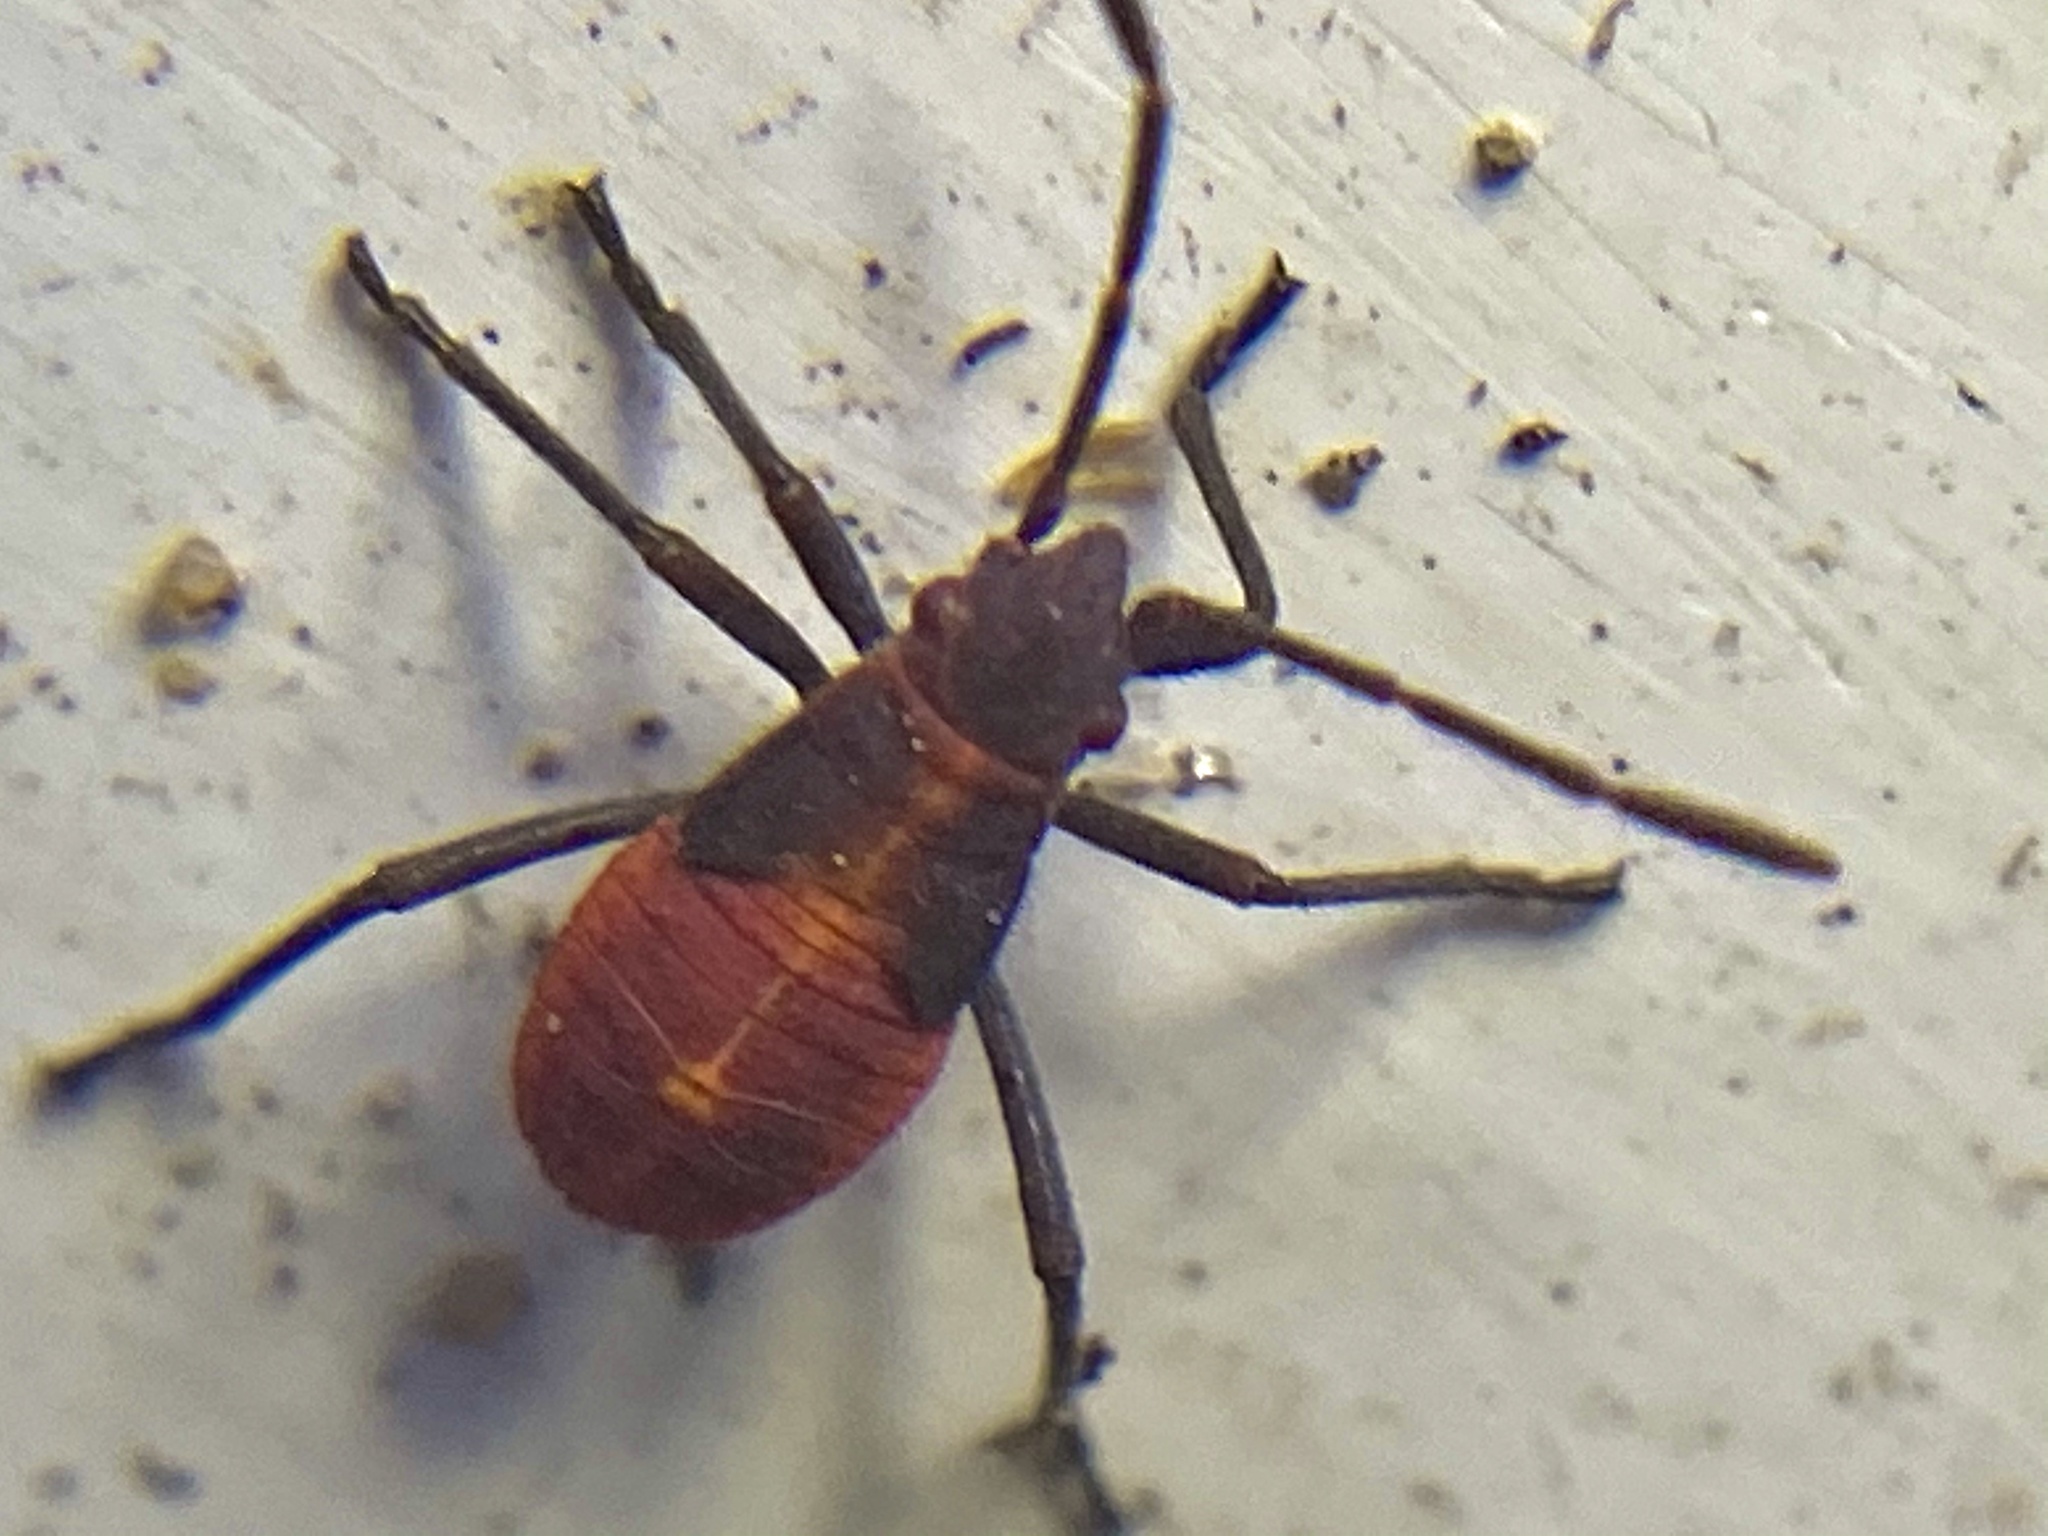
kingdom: Animalia
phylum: Arthropoda
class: Insecta
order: Hemiptera
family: Rhopalidae
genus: Boisea
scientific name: Boisea trivittata
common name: Boxelder bug
